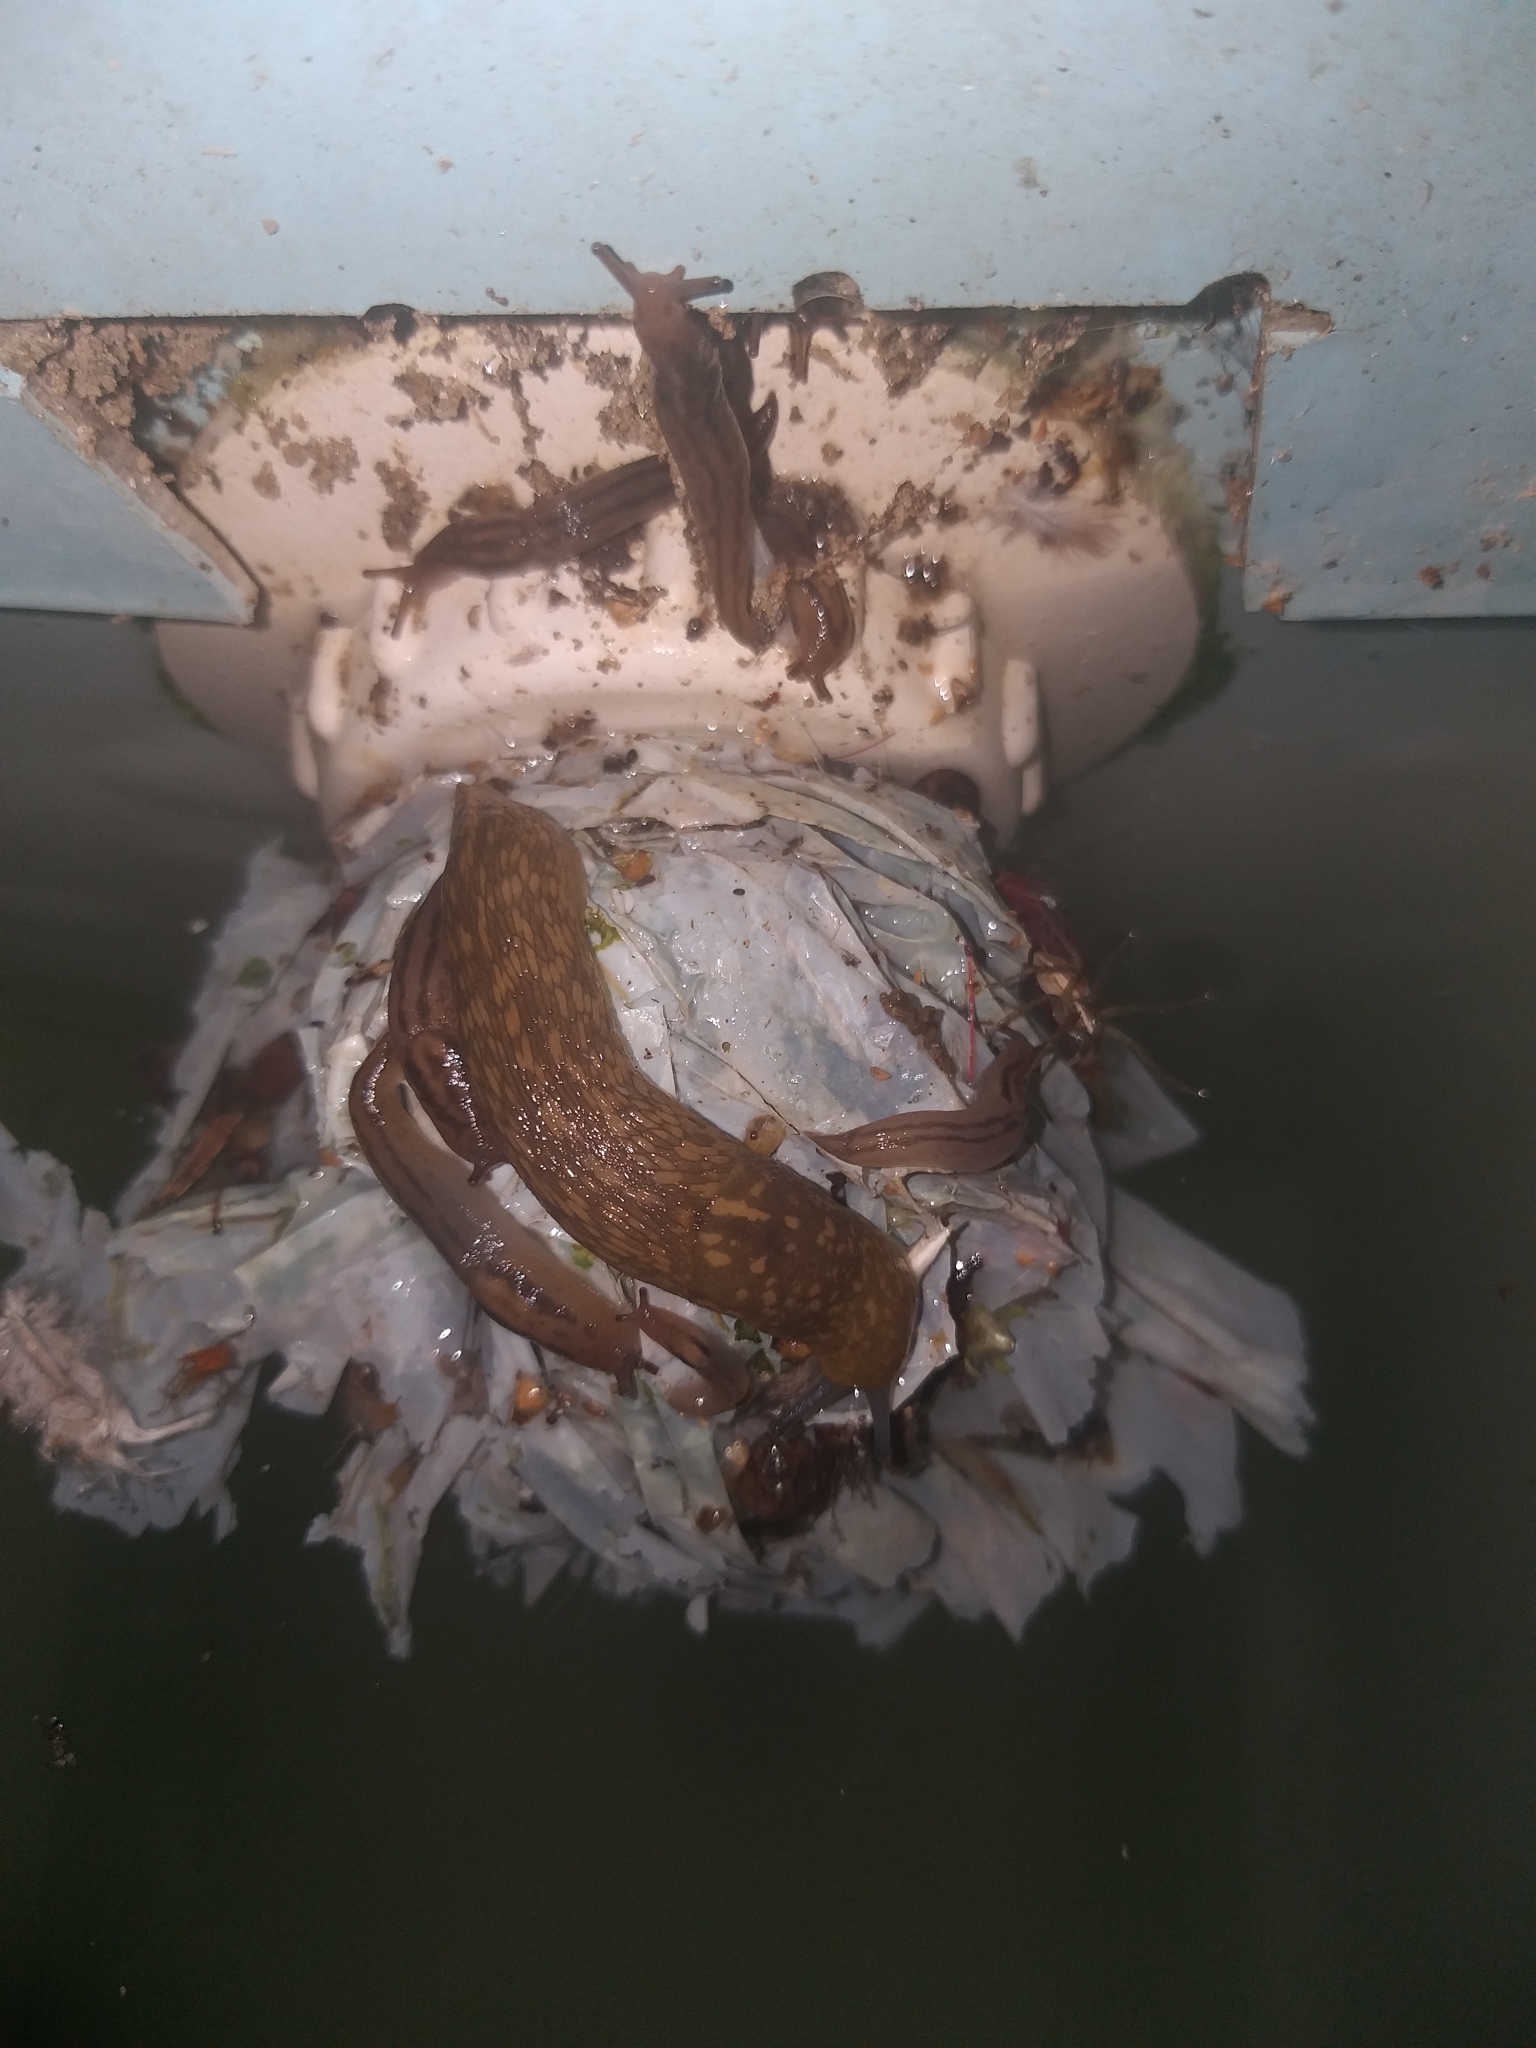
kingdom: Animalia
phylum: Mollusca
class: Gastropoda
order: Stylommatophora
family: Limacidae
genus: Limacus
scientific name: Limacus flavus
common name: Yellow gardenslug
